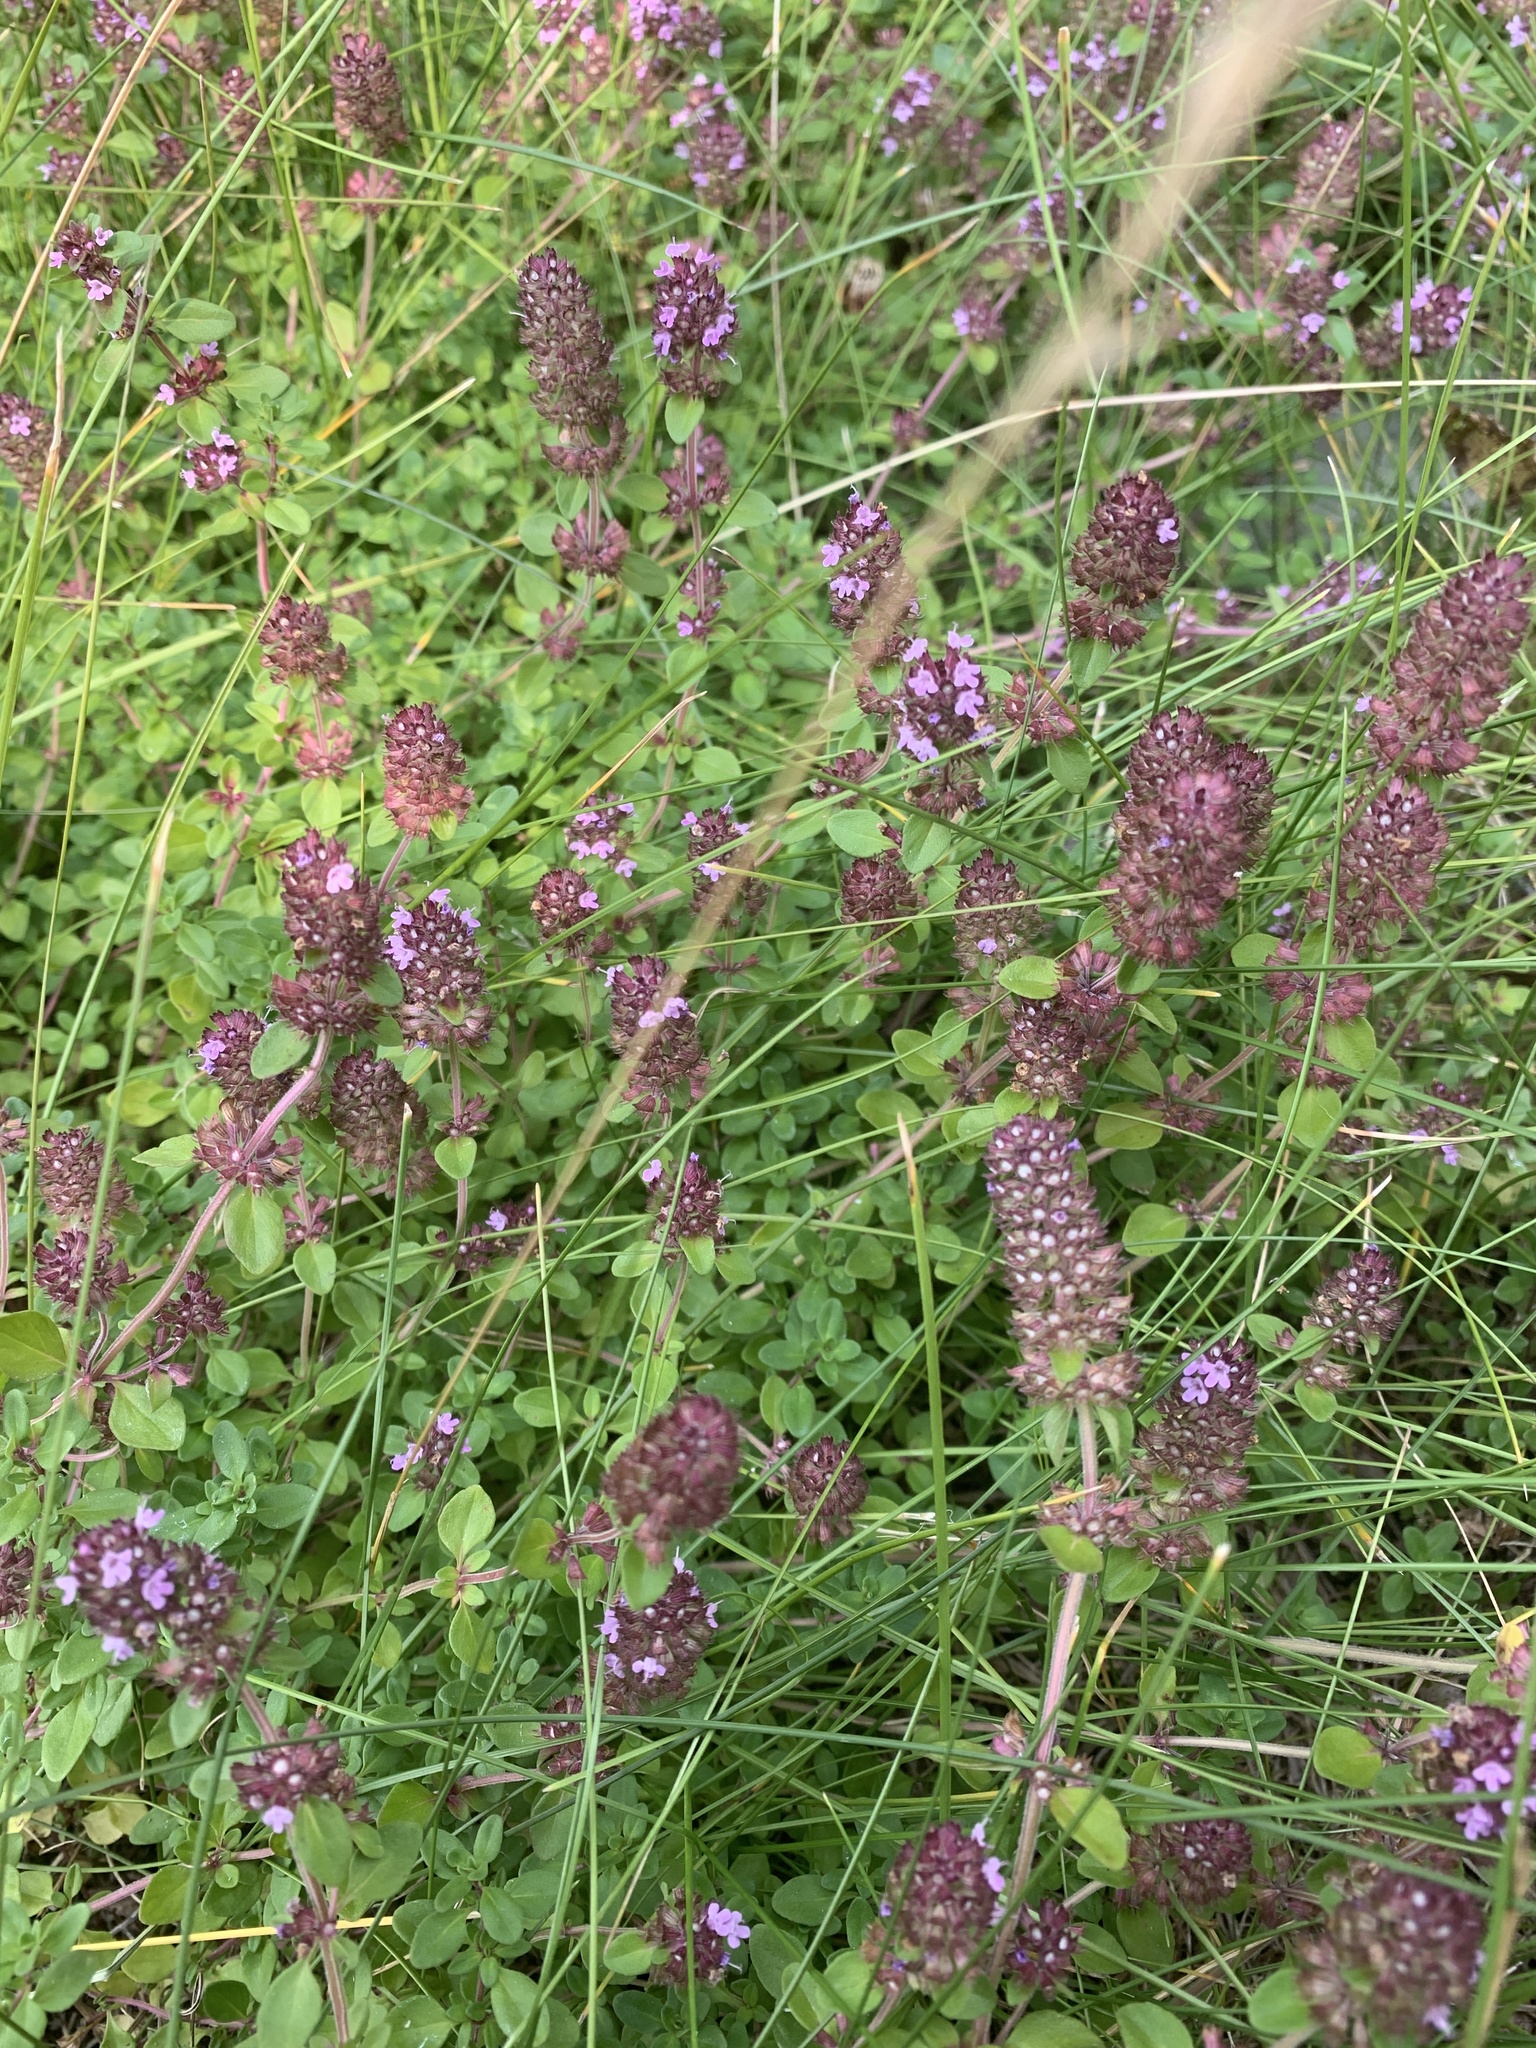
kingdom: Plantae
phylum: Tracheophyta
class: Magnoliopsida
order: Lamiales
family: Lamiaceae
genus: Thymus
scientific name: Thymus pulegioides
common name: Large thyme
